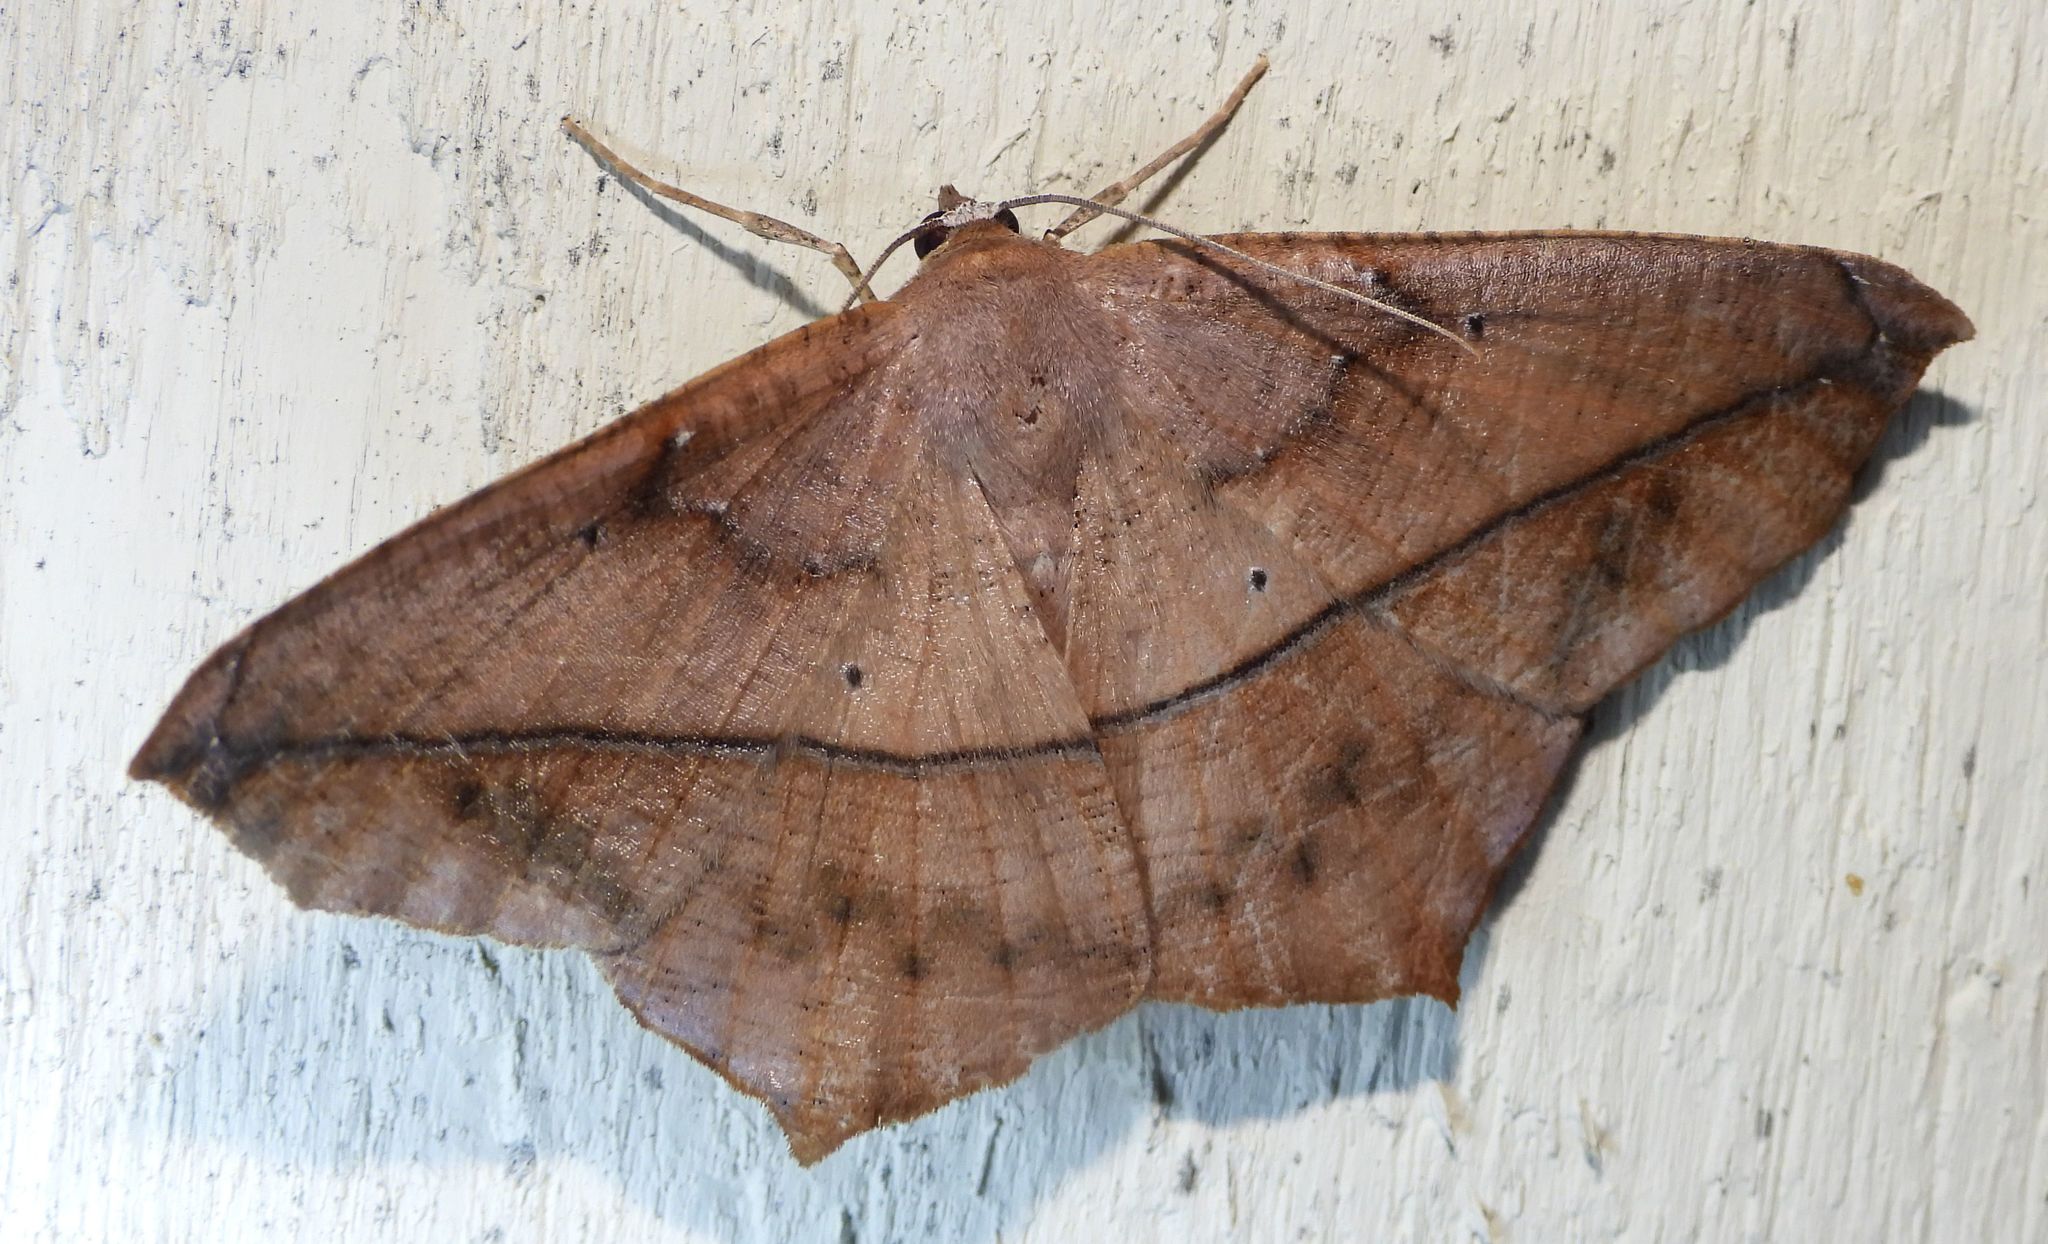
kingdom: Animalia
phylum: Arthropoda
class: Insecta
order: Lepidoptera
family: Geometridae
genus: Prochoerodes
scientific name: Prochoerodes lineola
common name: Large maple spanworm
